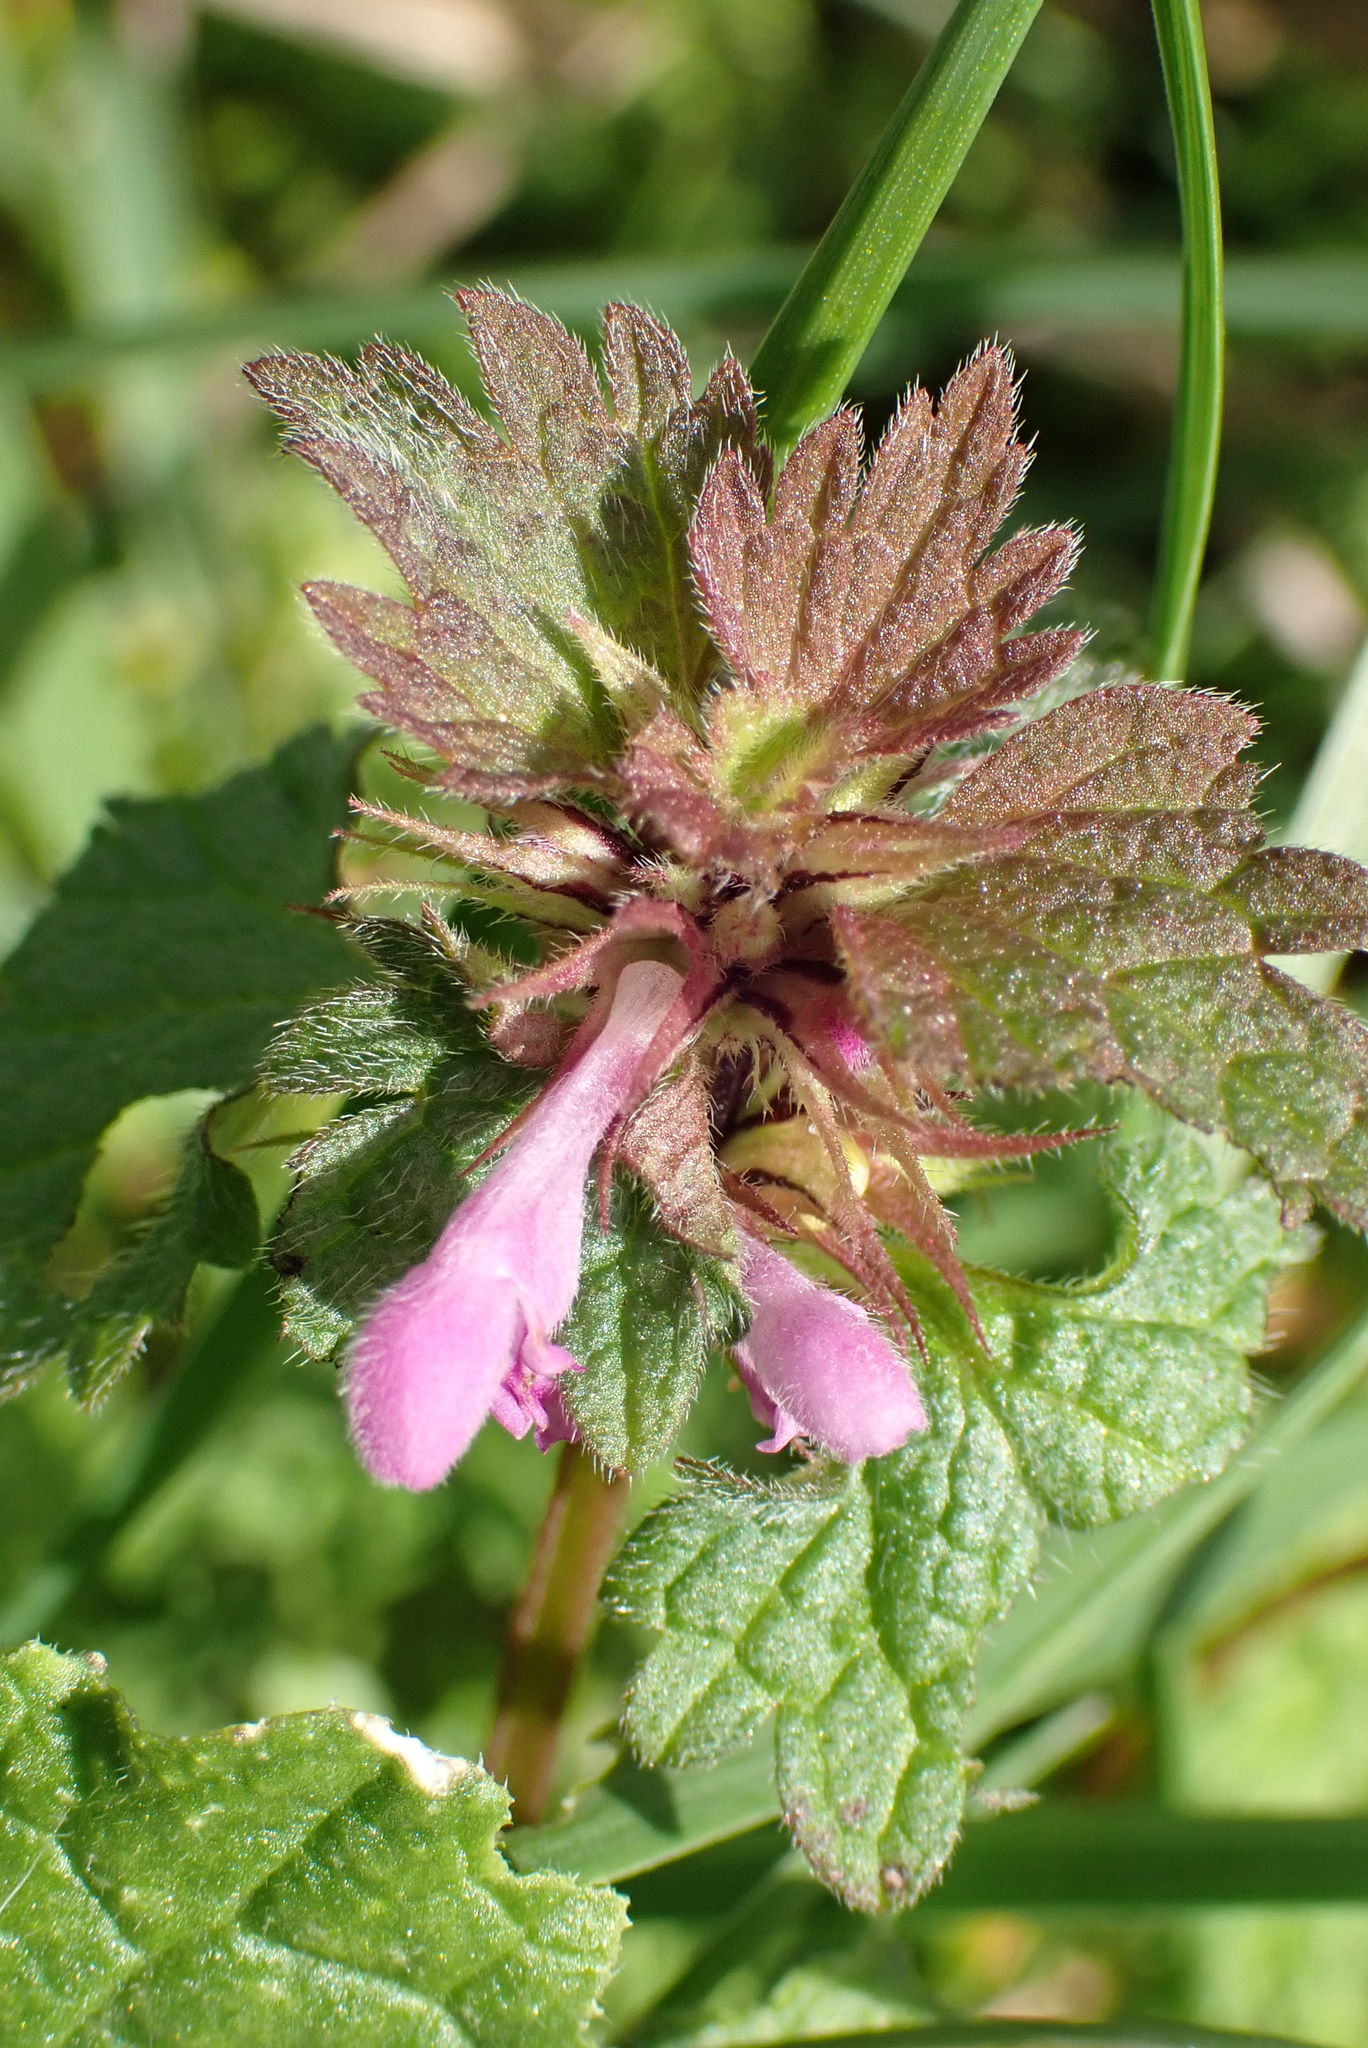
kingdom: Plantae
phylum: Tracheophyta
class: Magnoliopsida
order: Lamiales
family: Lamiaceae
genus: Lamium
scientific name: Lamium hybridum
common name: Cut-leaved dead-nettle
